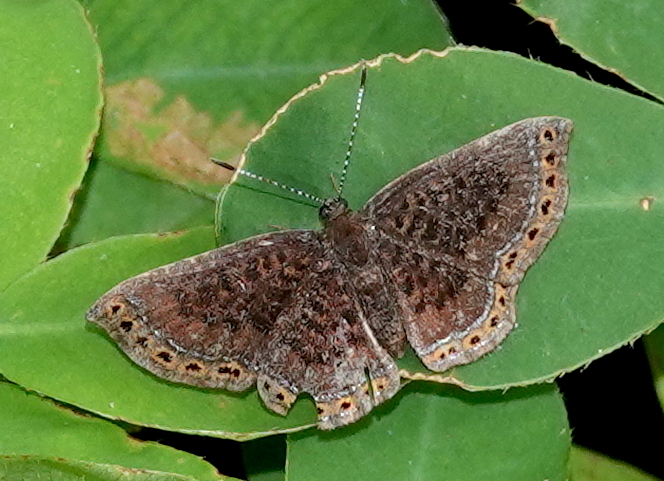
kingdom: Animalia
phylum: Arthropoda
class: Insecta
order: Lepidoptera
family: Riodinidae
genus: Detritivora
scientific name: Detritivora
